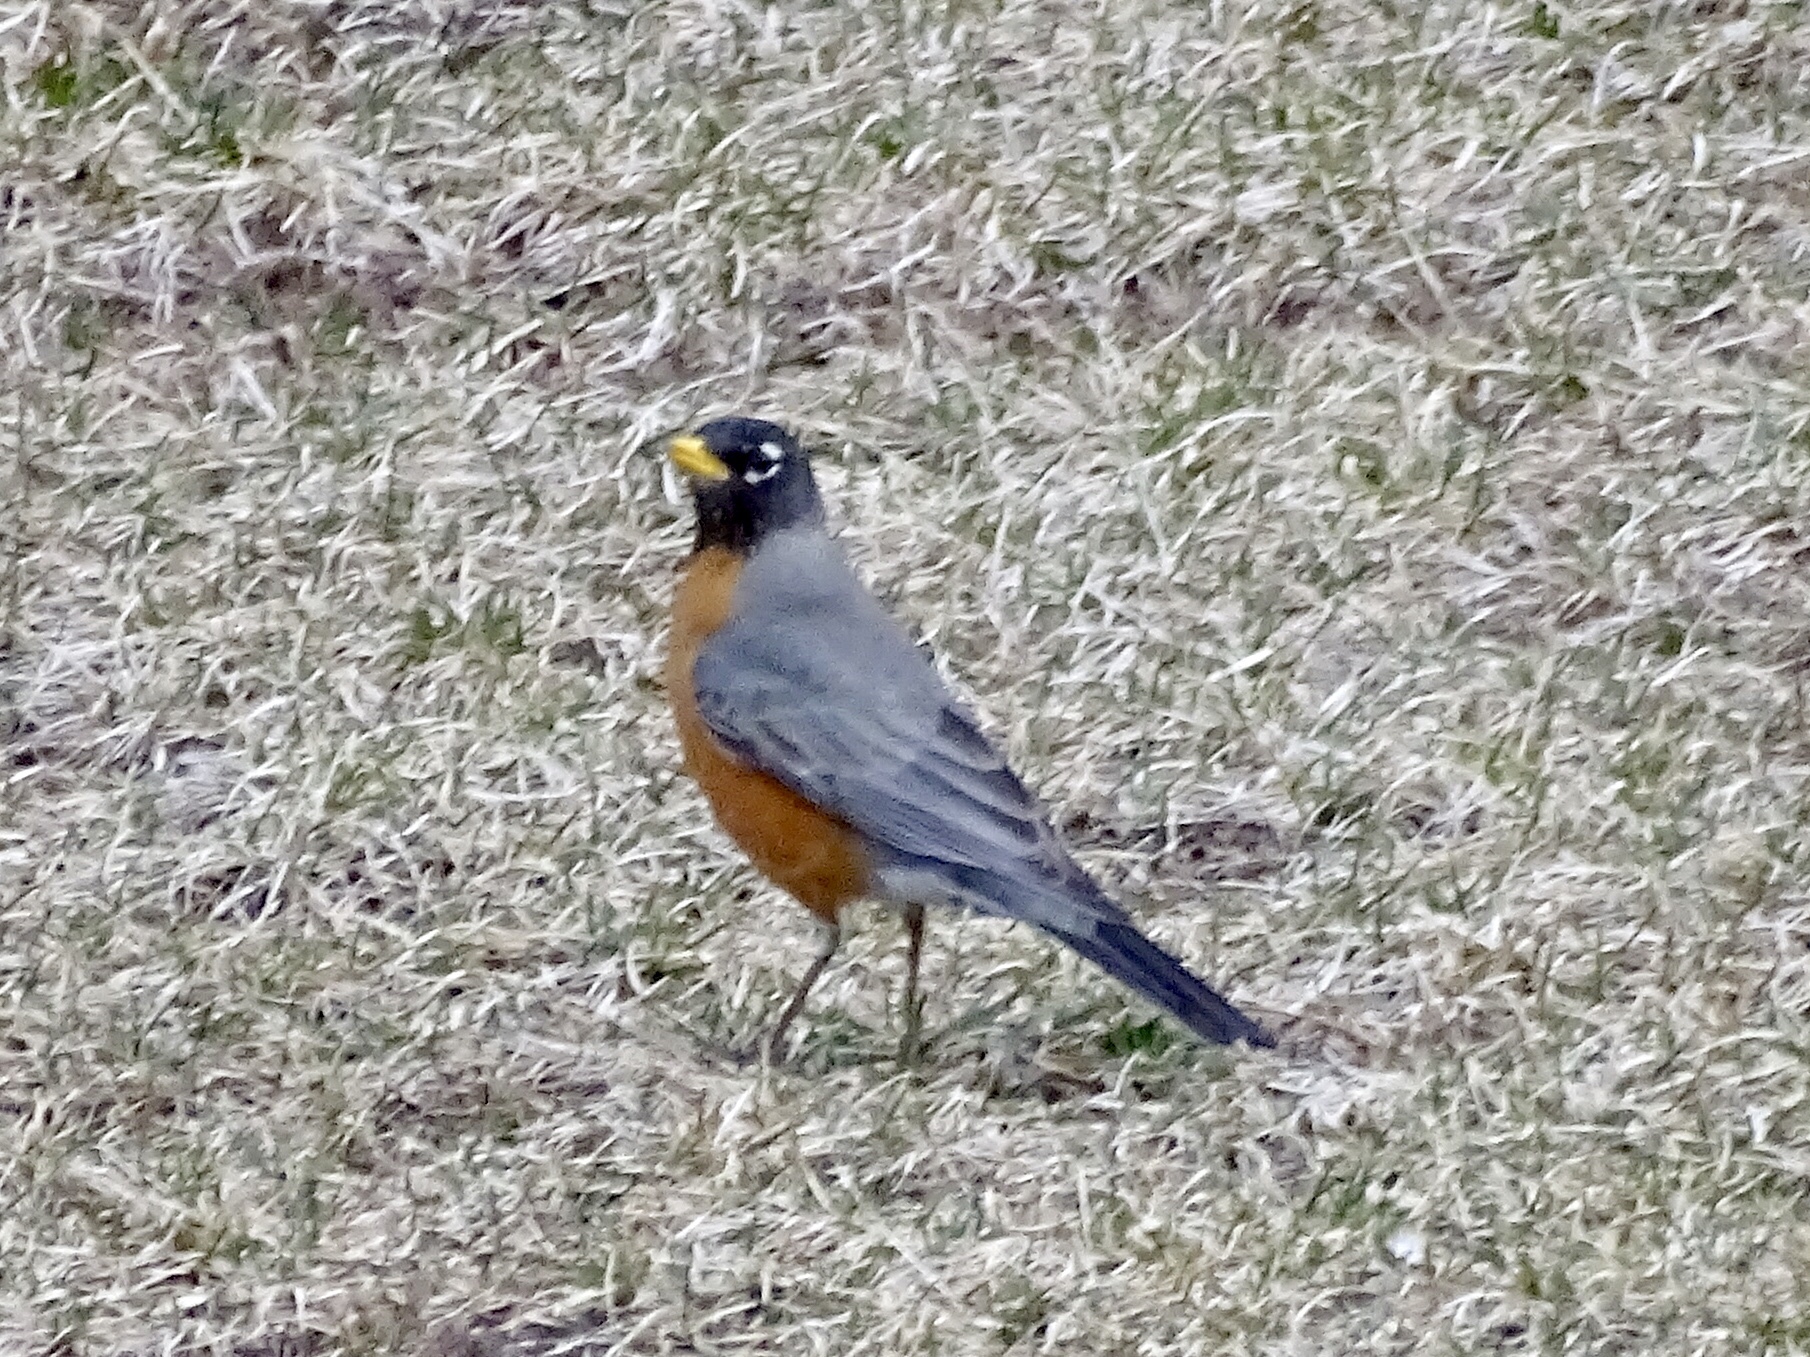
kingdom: Animalia
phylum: Chordata
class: Aves
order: Passeriformes
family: Turdidae
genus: Turdus
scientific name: Turdus migratorius
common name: American robin
